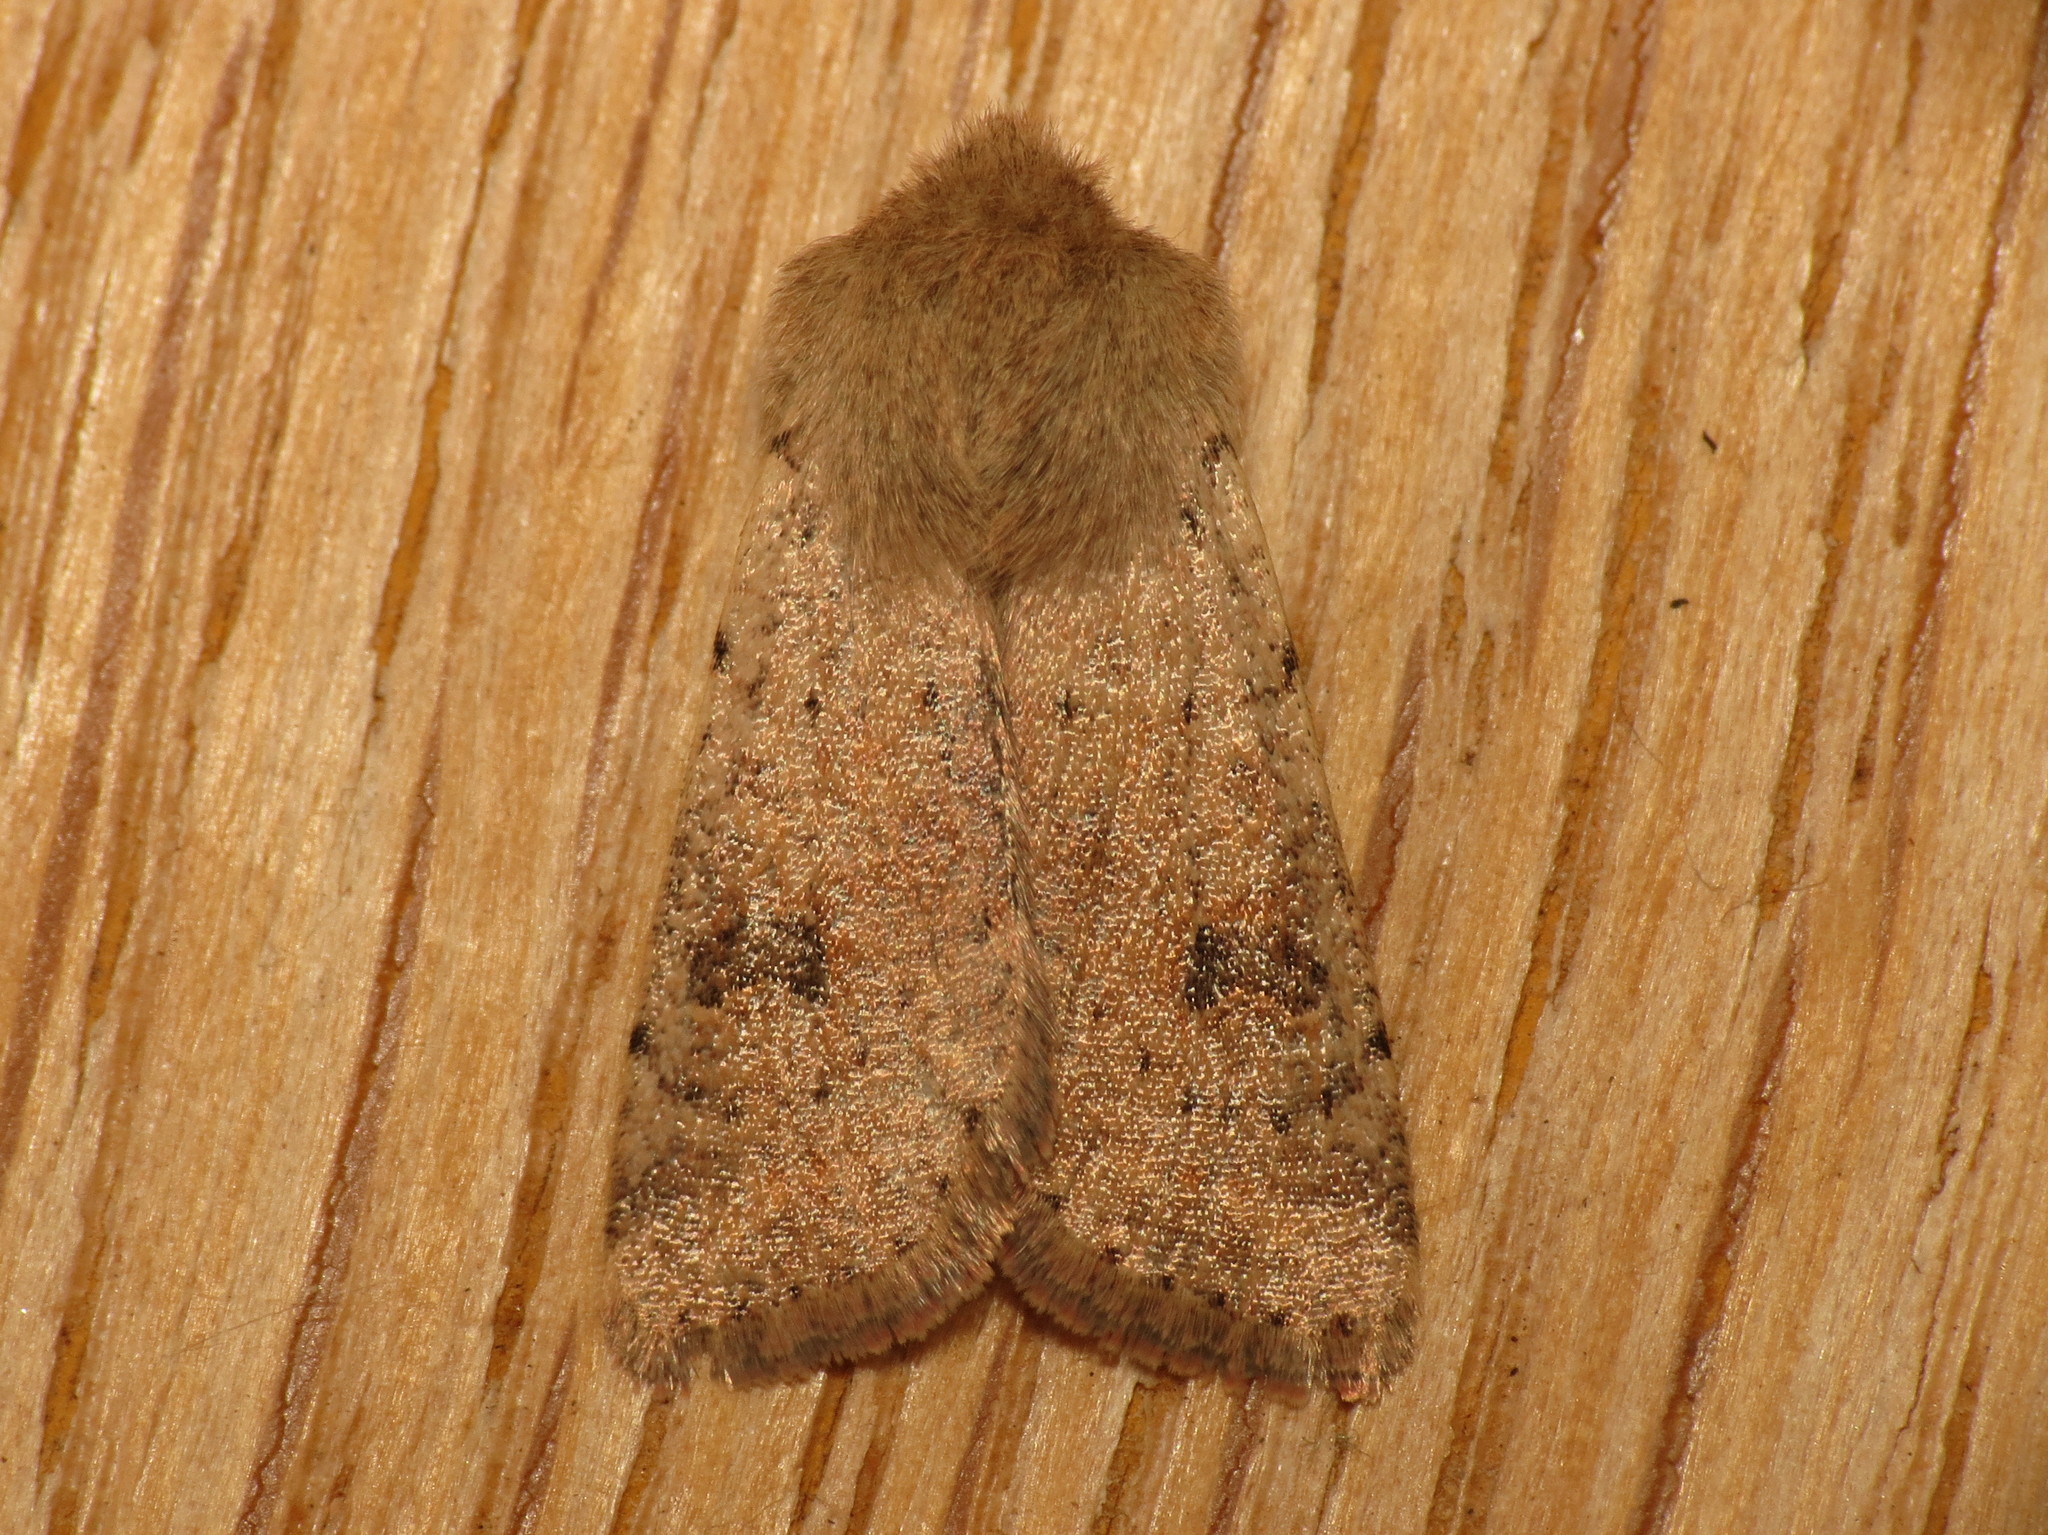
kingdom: Animalia
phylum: Arthropoda
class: Insecta
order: Lepidoptera
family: Noctuidae
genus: Orthosia
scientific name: Orthosia cruda
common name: Small quaker
